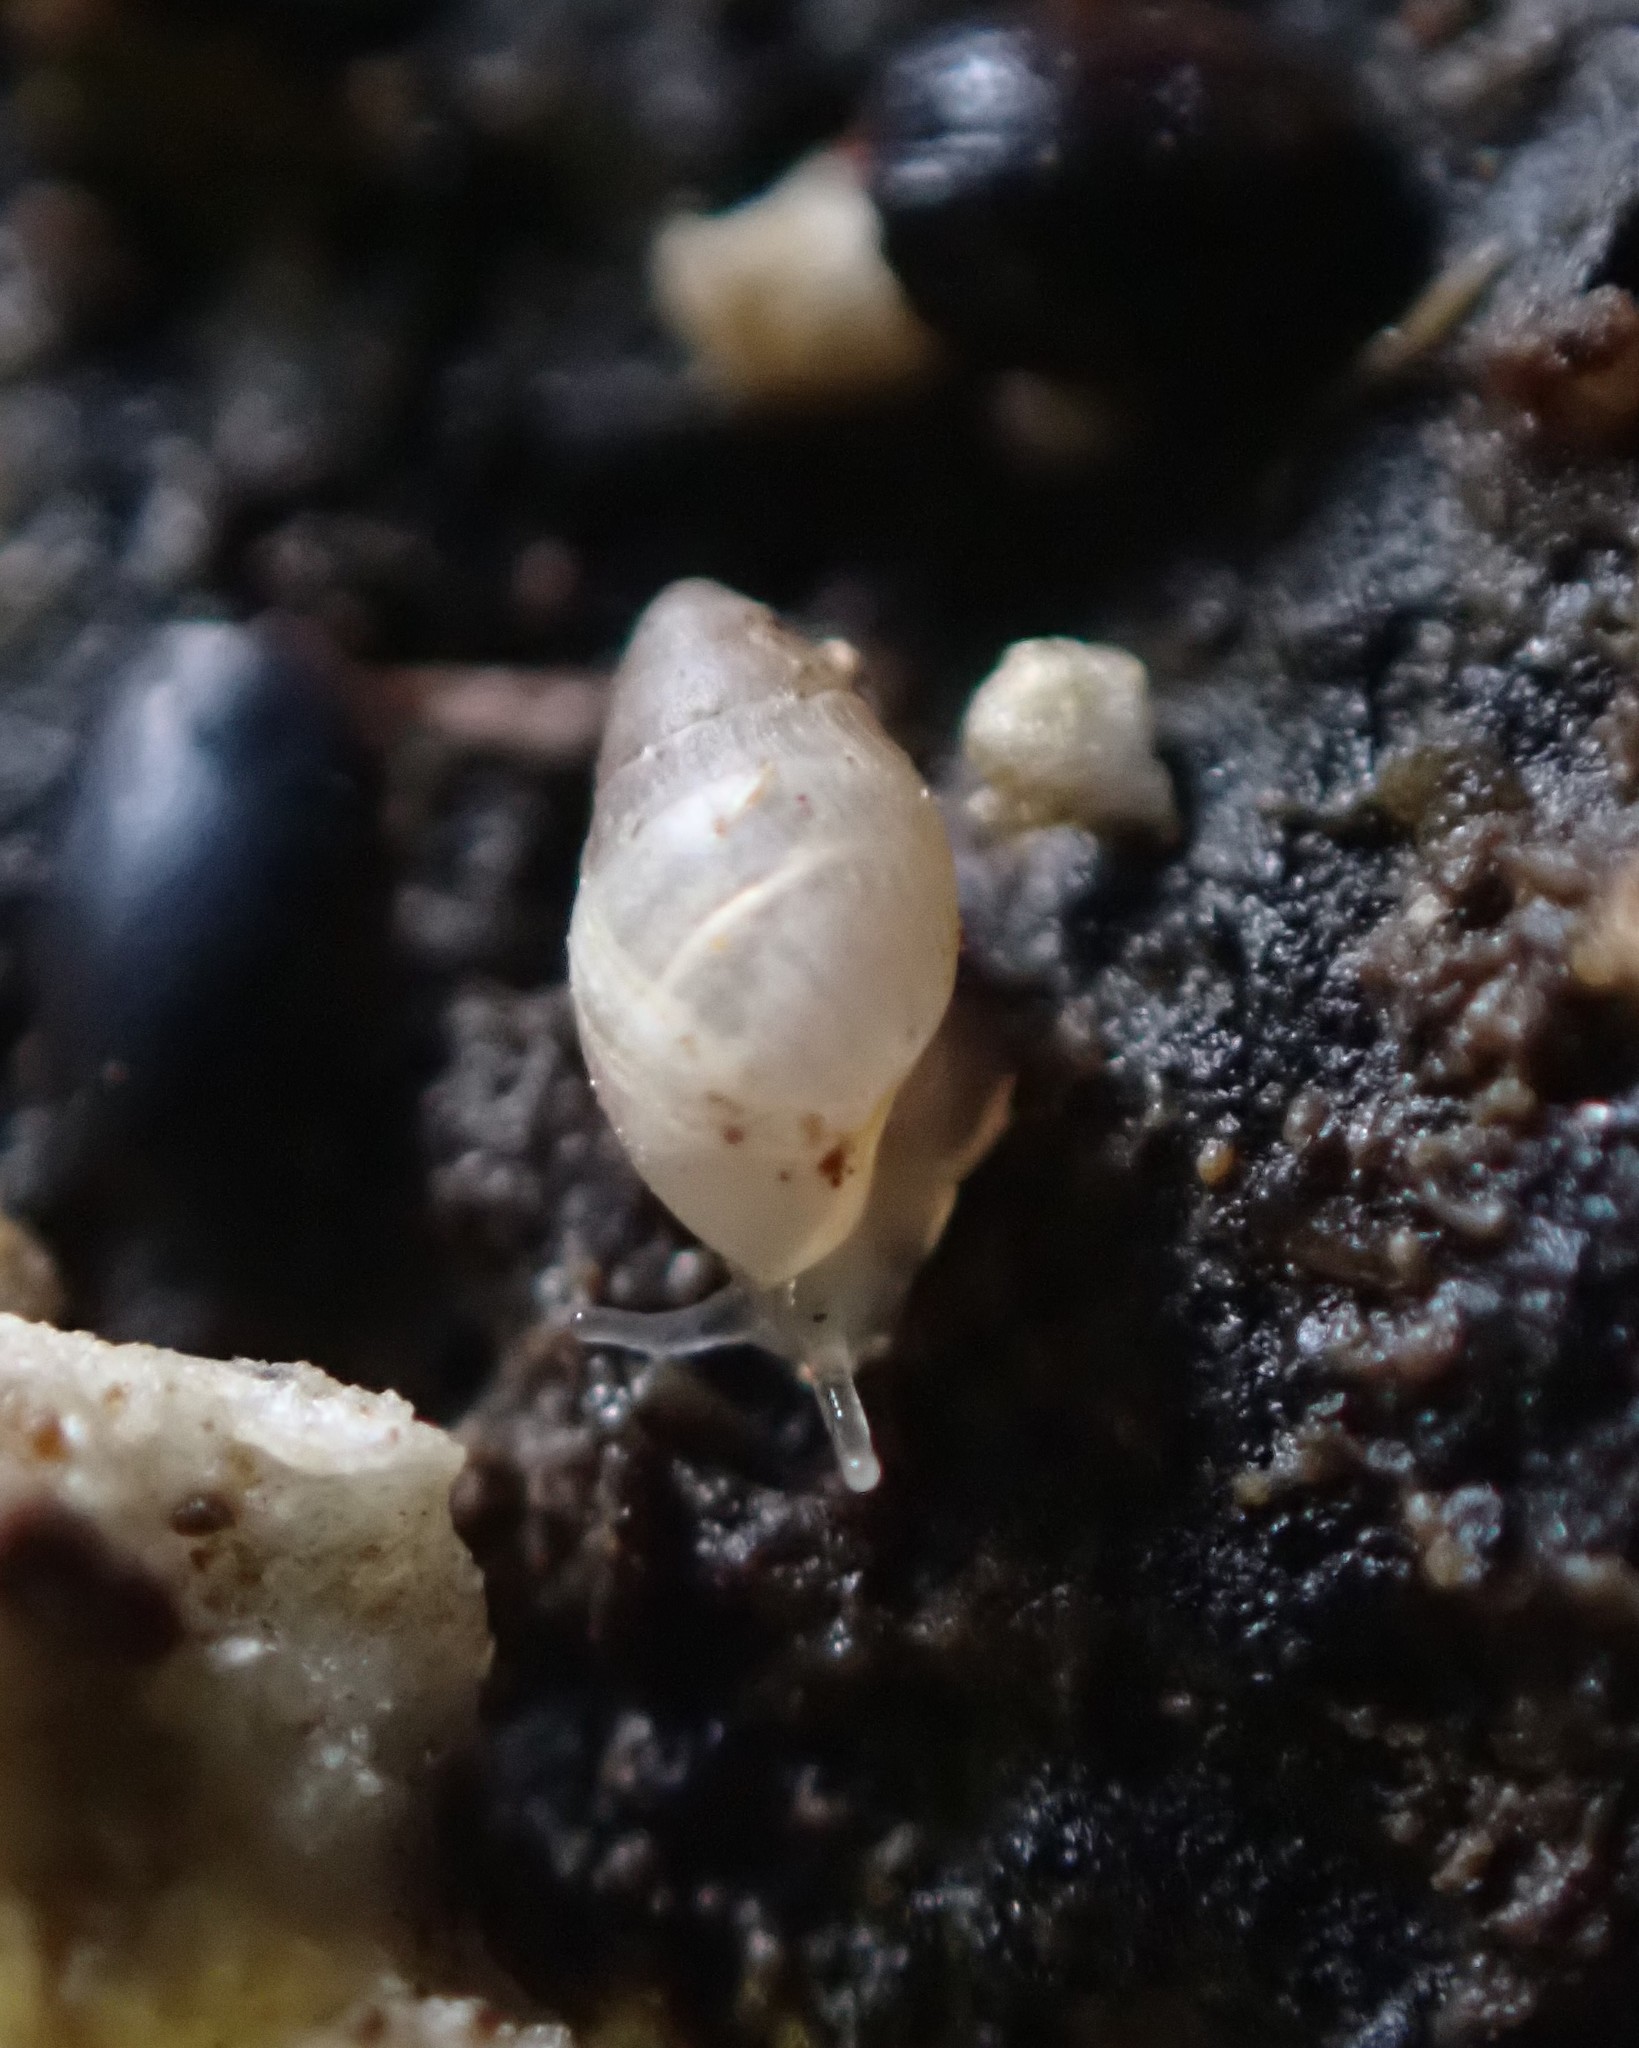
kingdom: Animalia
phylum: Mollusca
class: Gastropoda
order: Ellobiida
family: Ellobiidae
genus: Leuconopsis
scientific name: Leuconopsis obsoleta
